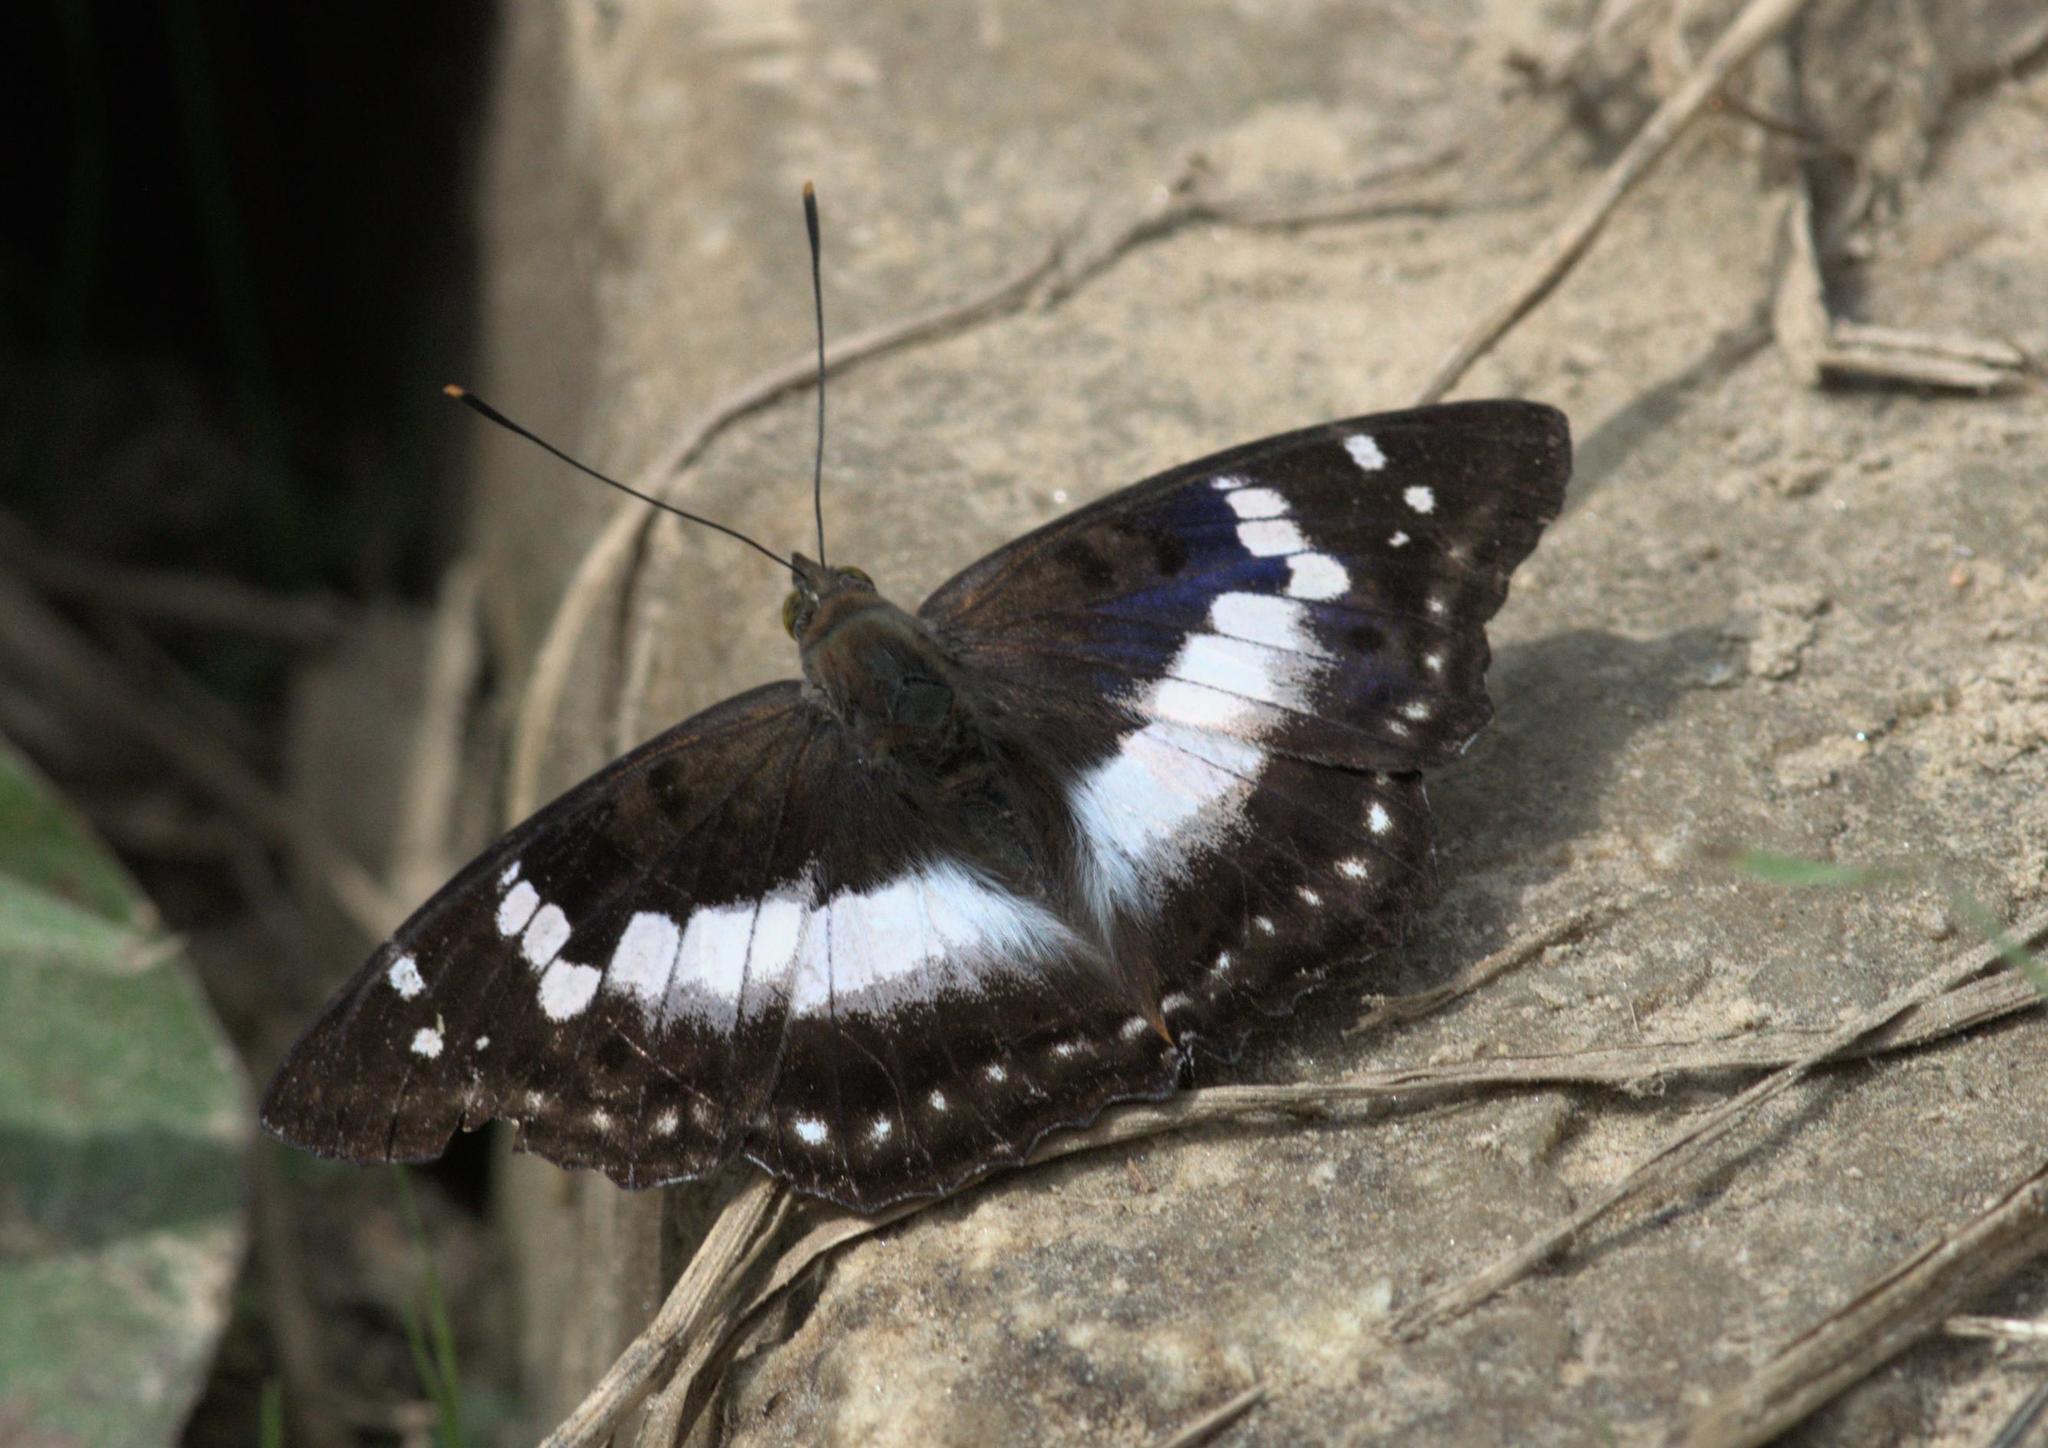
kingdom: Animalia
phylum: Arthropoda
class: Insecta
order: Lepidoptera
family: Nymphalidae
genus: Apatura
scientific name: Apatura Mimathyma ambica
